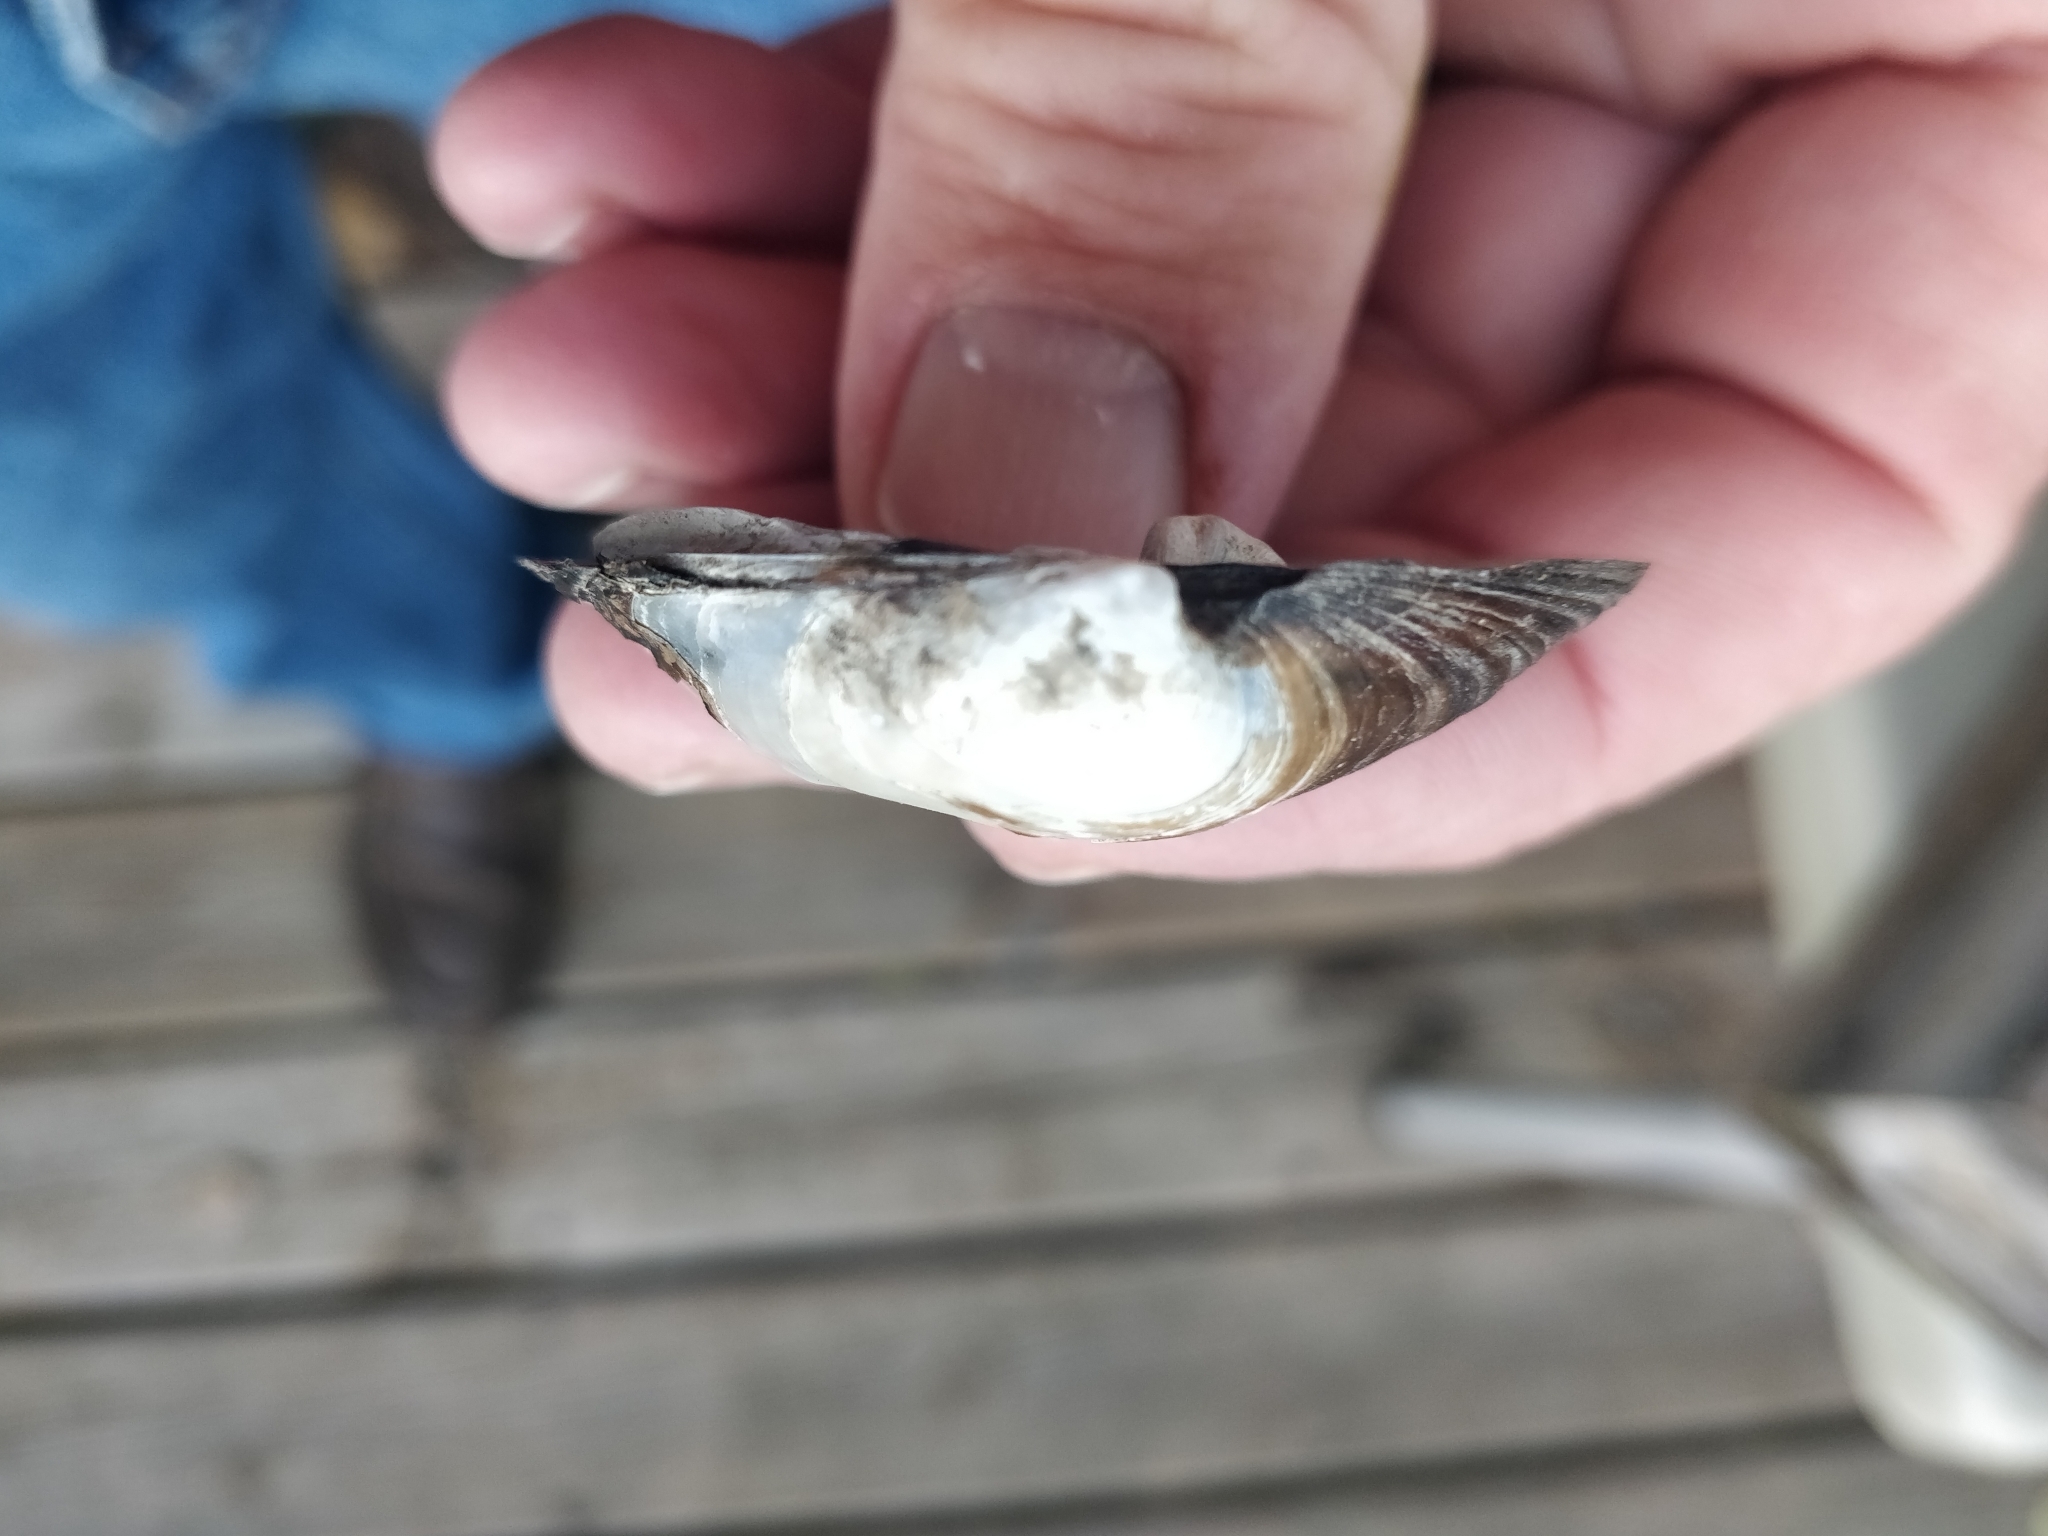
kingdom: Animalia
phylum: Mollusca
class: Bivalvia
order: Unionida
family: Unionidae
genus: Cyclonaias
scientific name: Cyclonaias pustulosa
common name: Pimpleback
